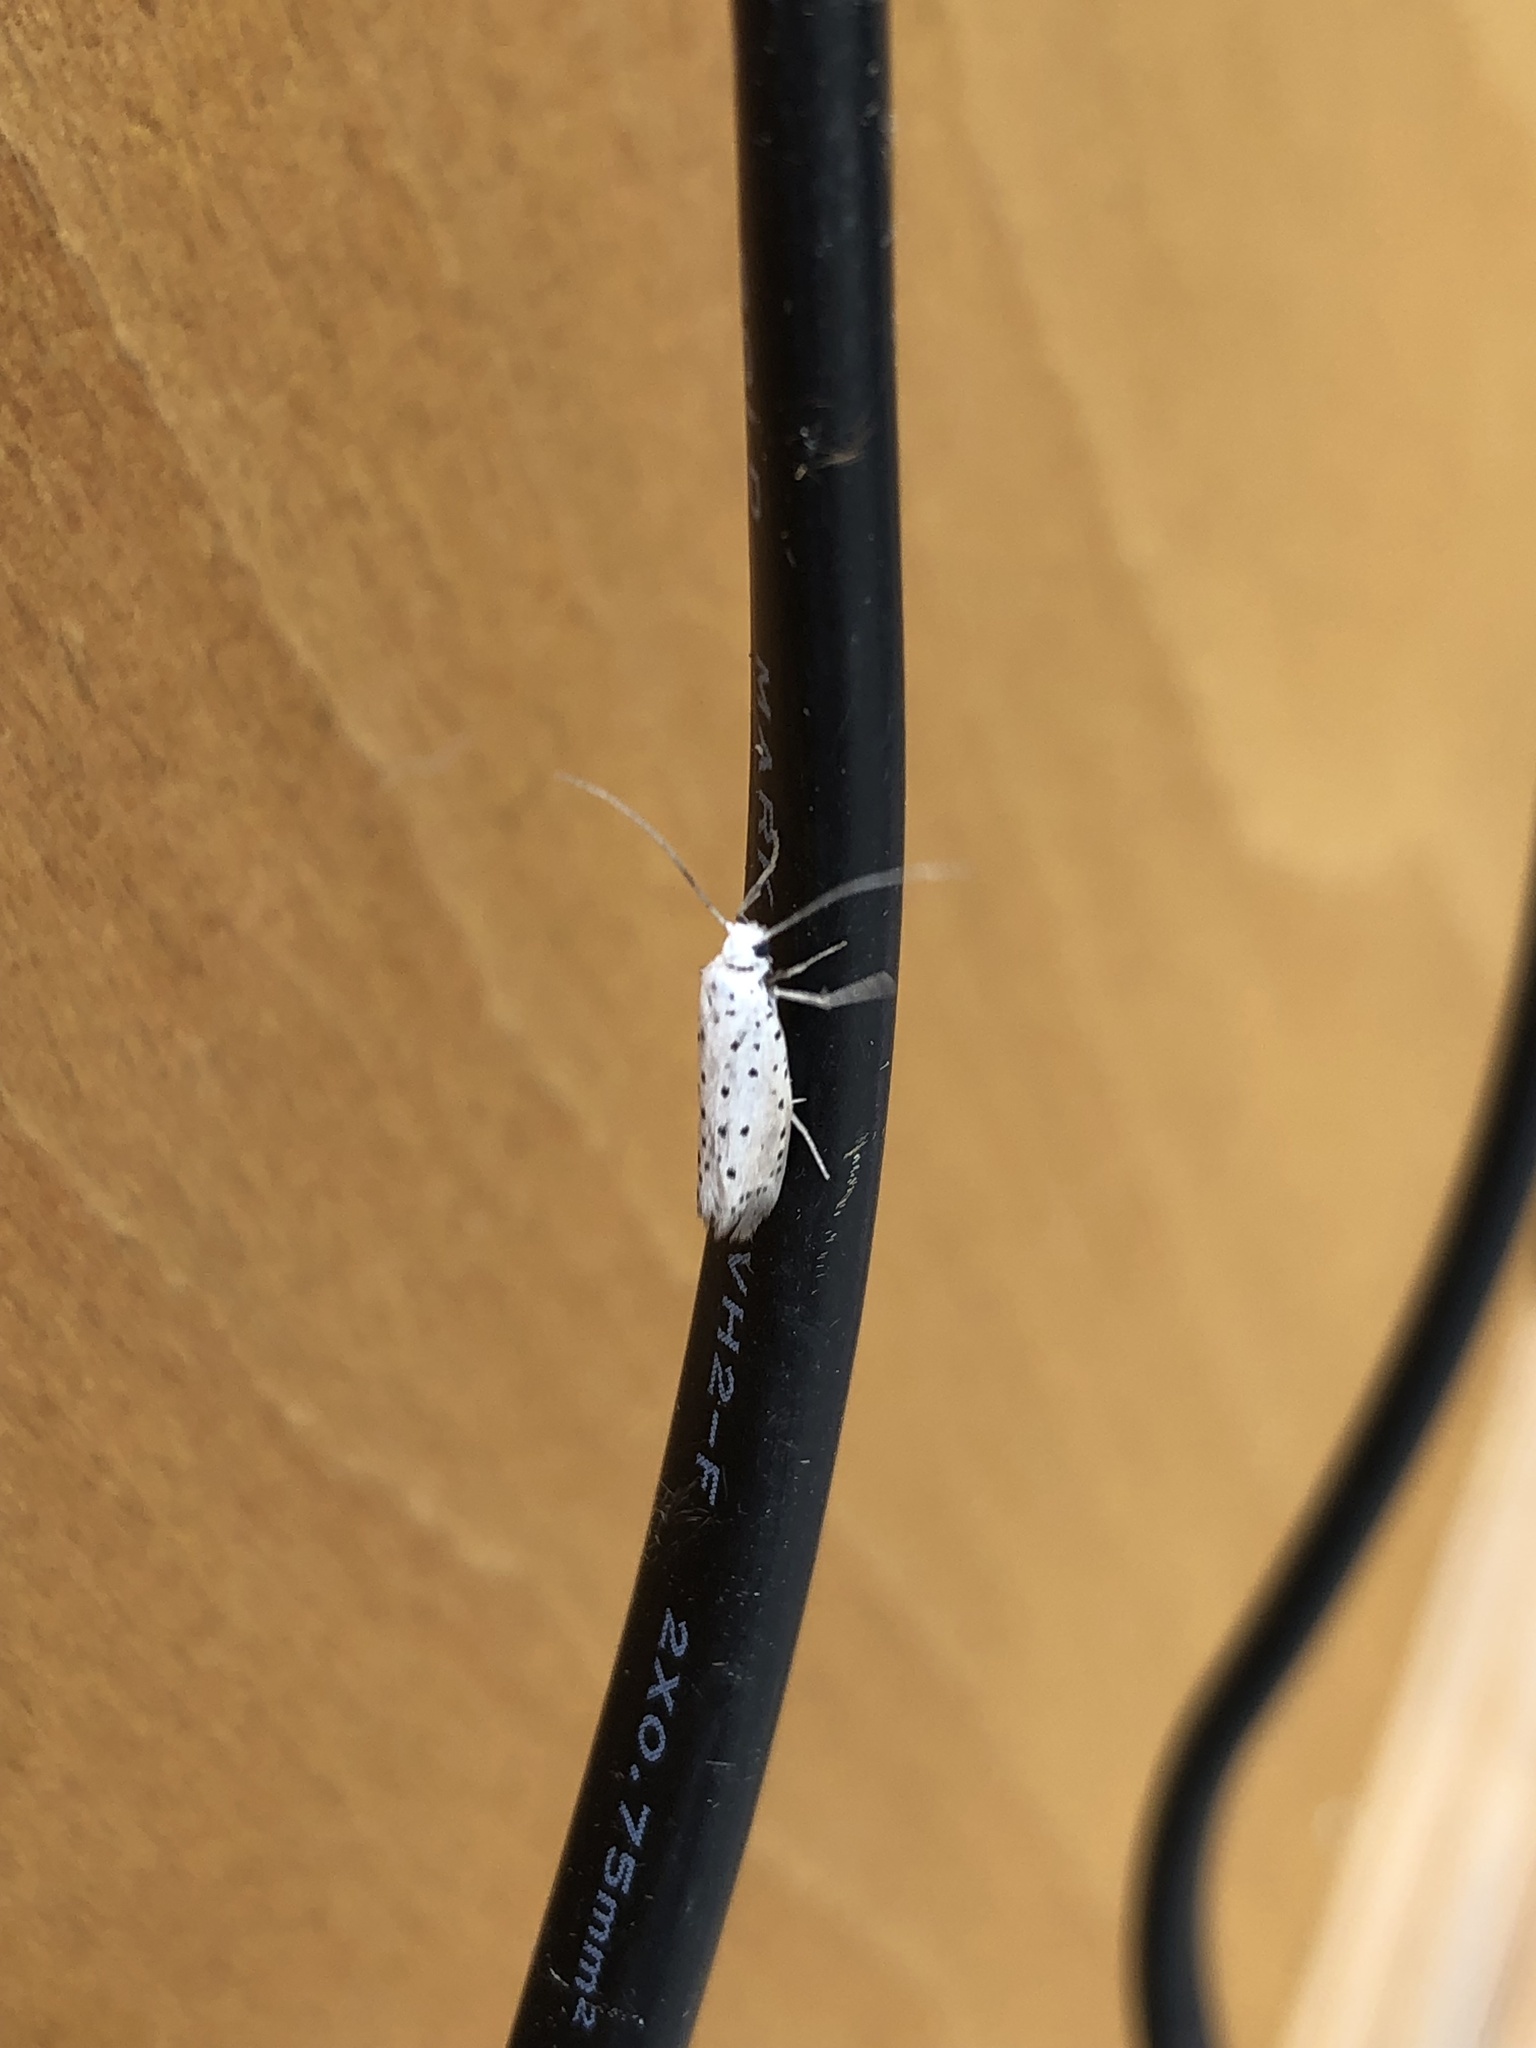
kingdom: Animalia
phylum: Arthropoda
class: Insecta
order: Lepidoptera
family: Yponomeutidae
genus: Yponomeuta
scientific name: Yponomeuta
